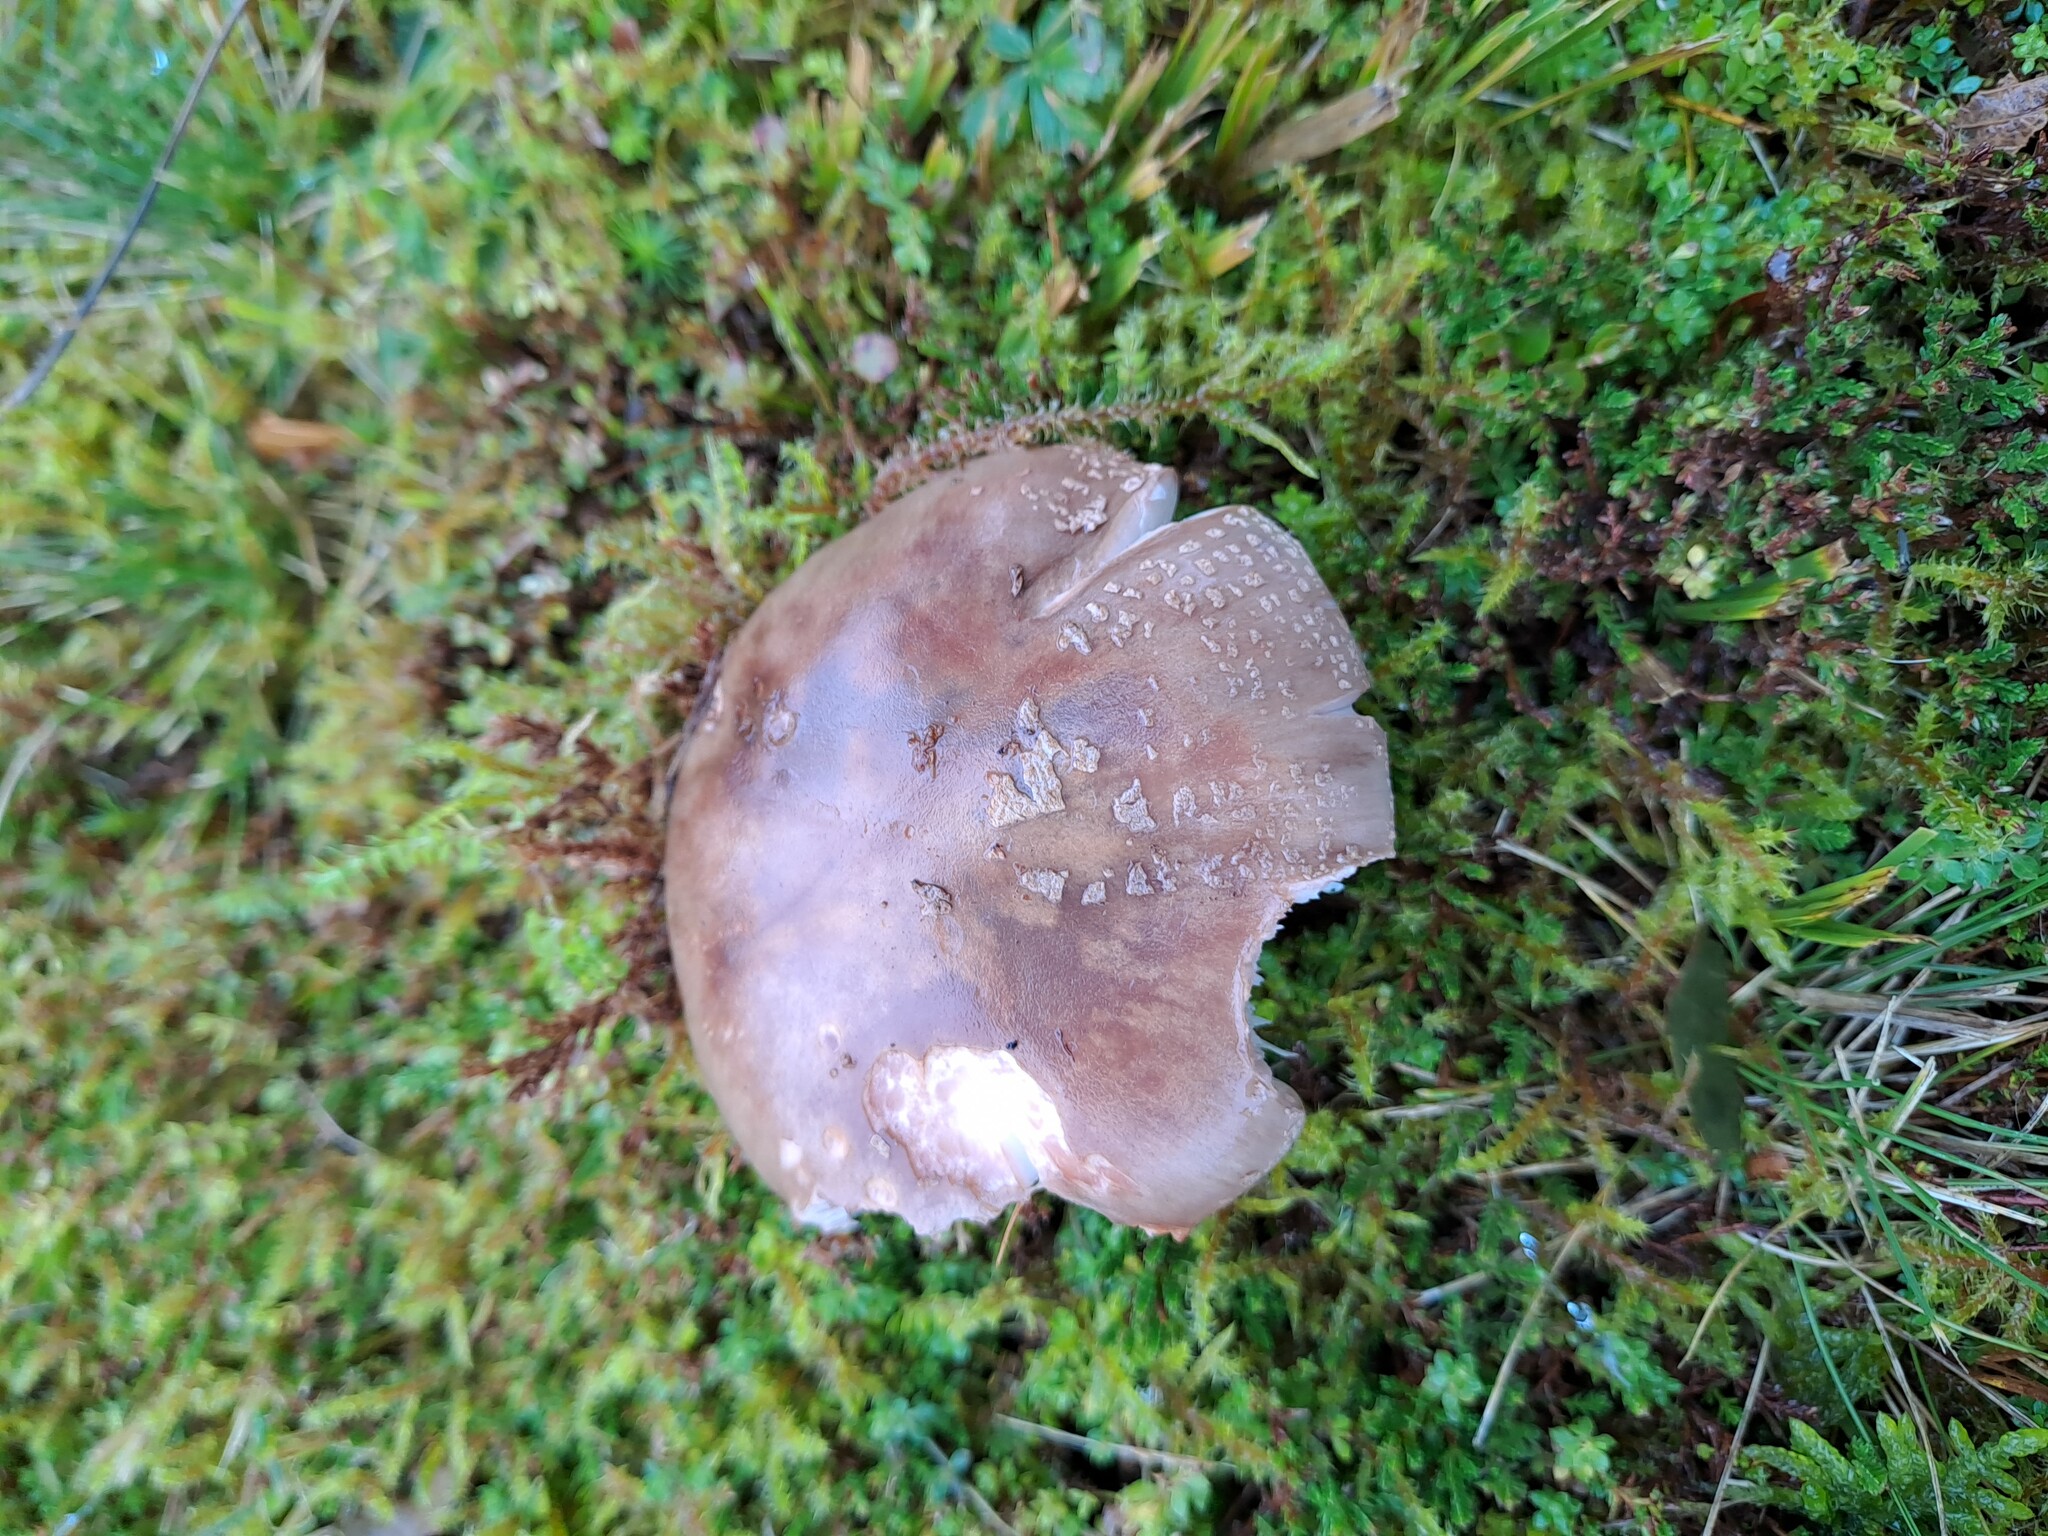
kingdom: Fungi
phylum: Basidiomycota
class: Agaricomycetes
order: Agaricales
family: Amanitaceae
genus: Amanita
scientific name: Amanita rubescens
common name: Blusher
